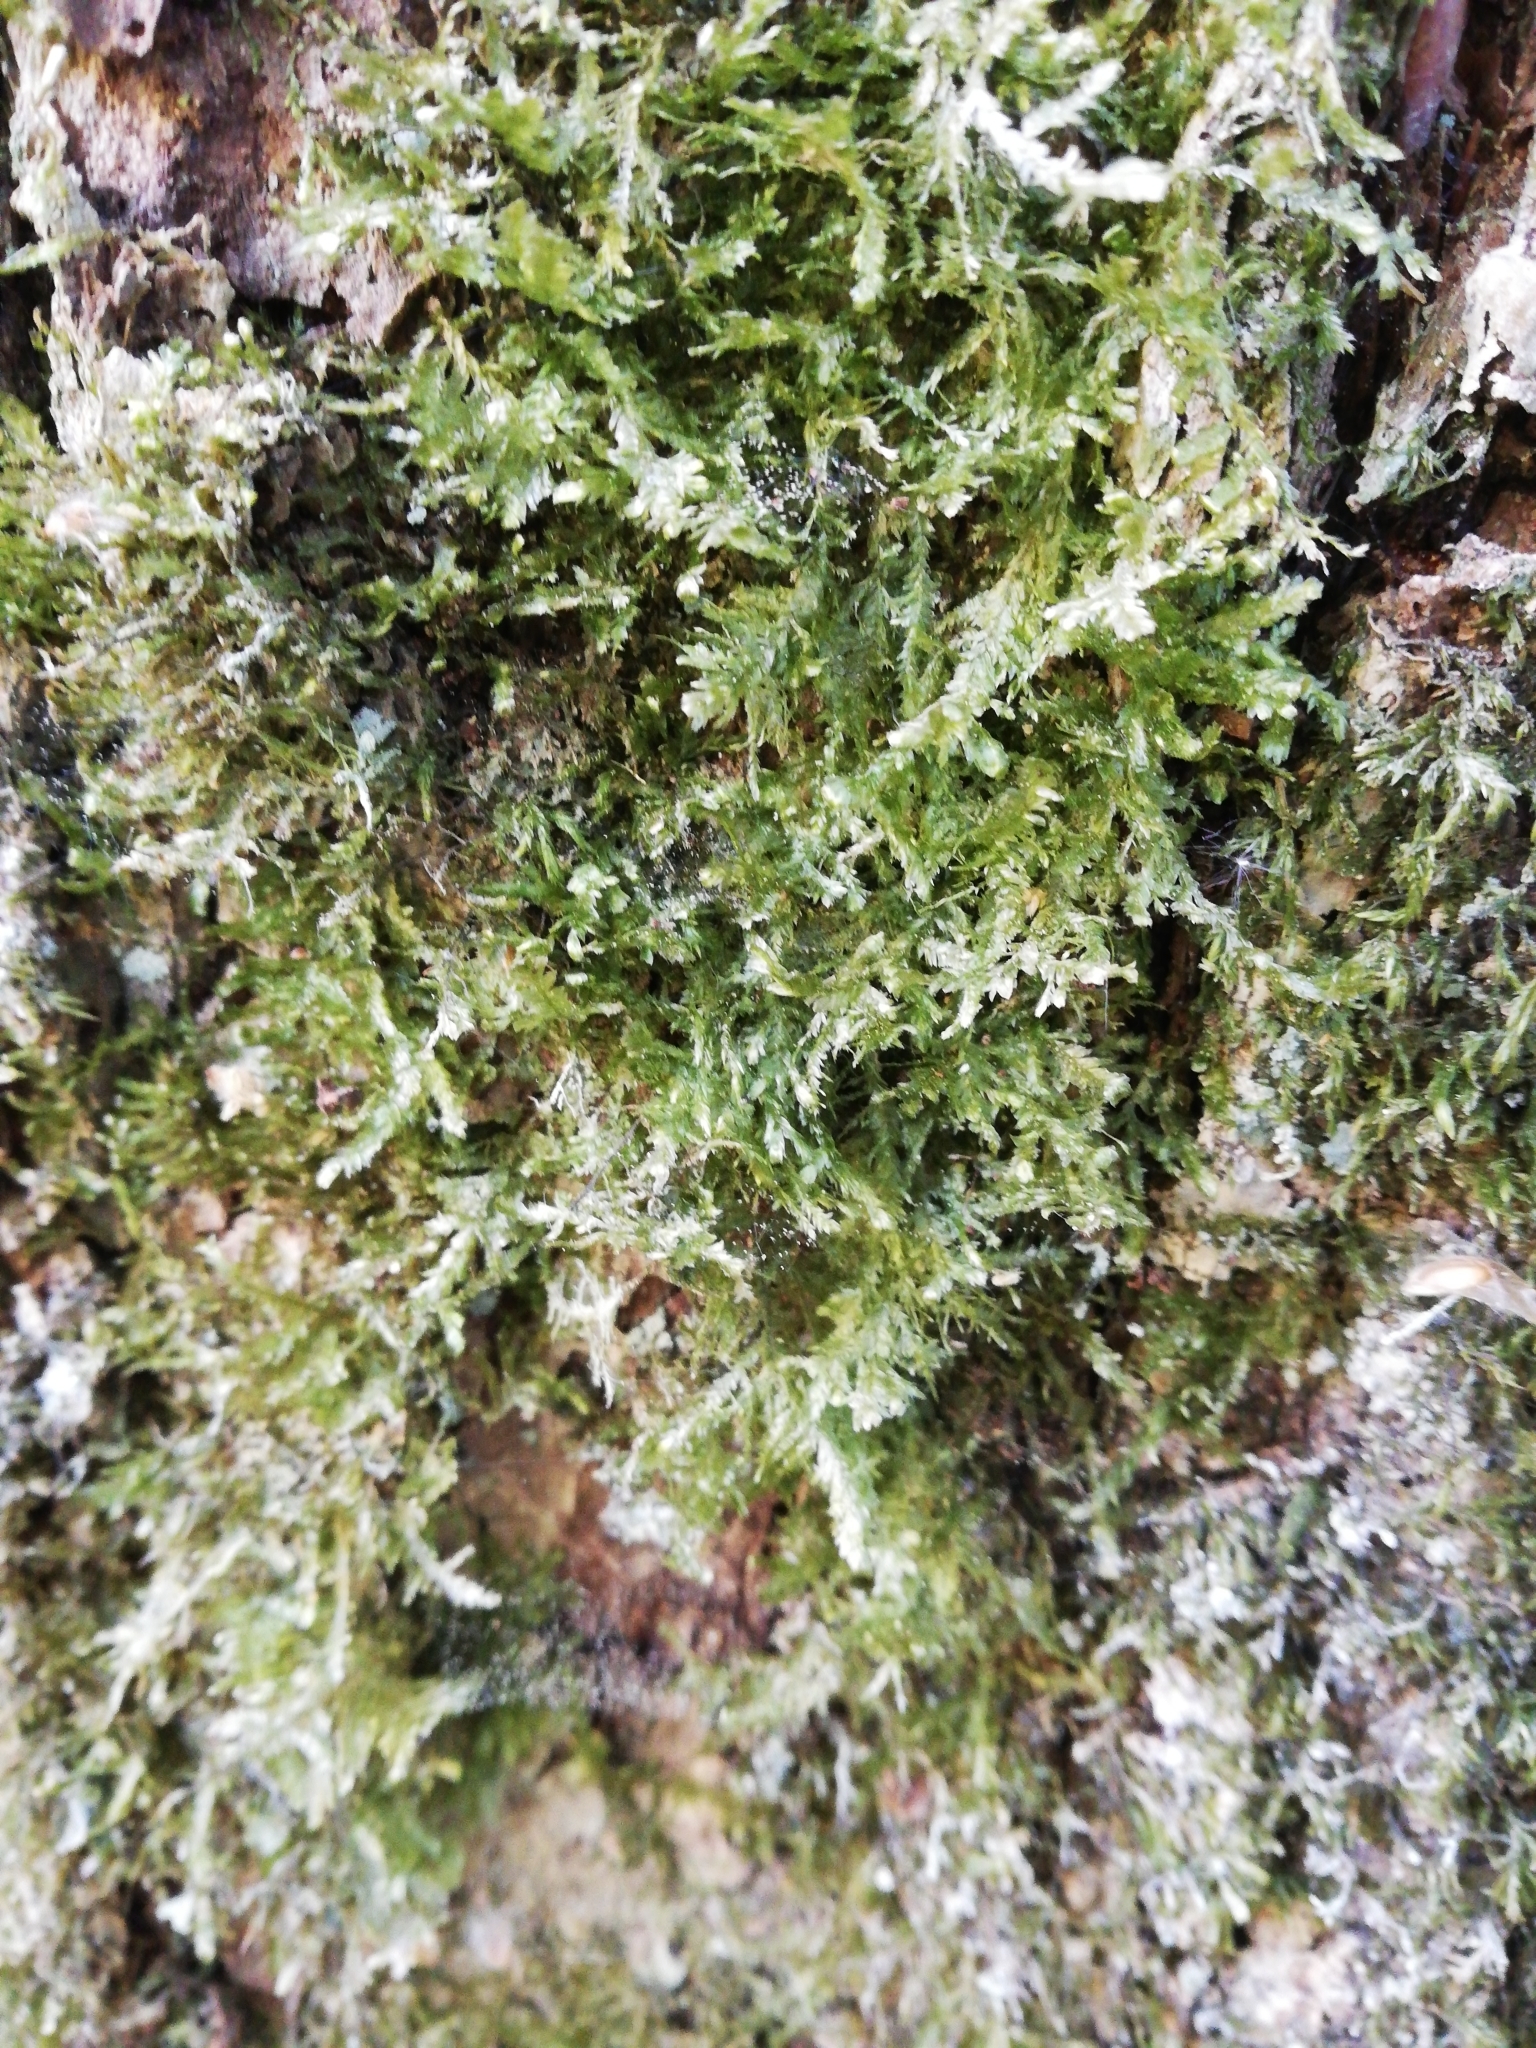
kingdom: Plantae
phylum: Bryophyta
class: Bryopsida
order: Hypnales
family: Neckeraceae
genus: Alleniella
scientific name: Alleniella complanata
